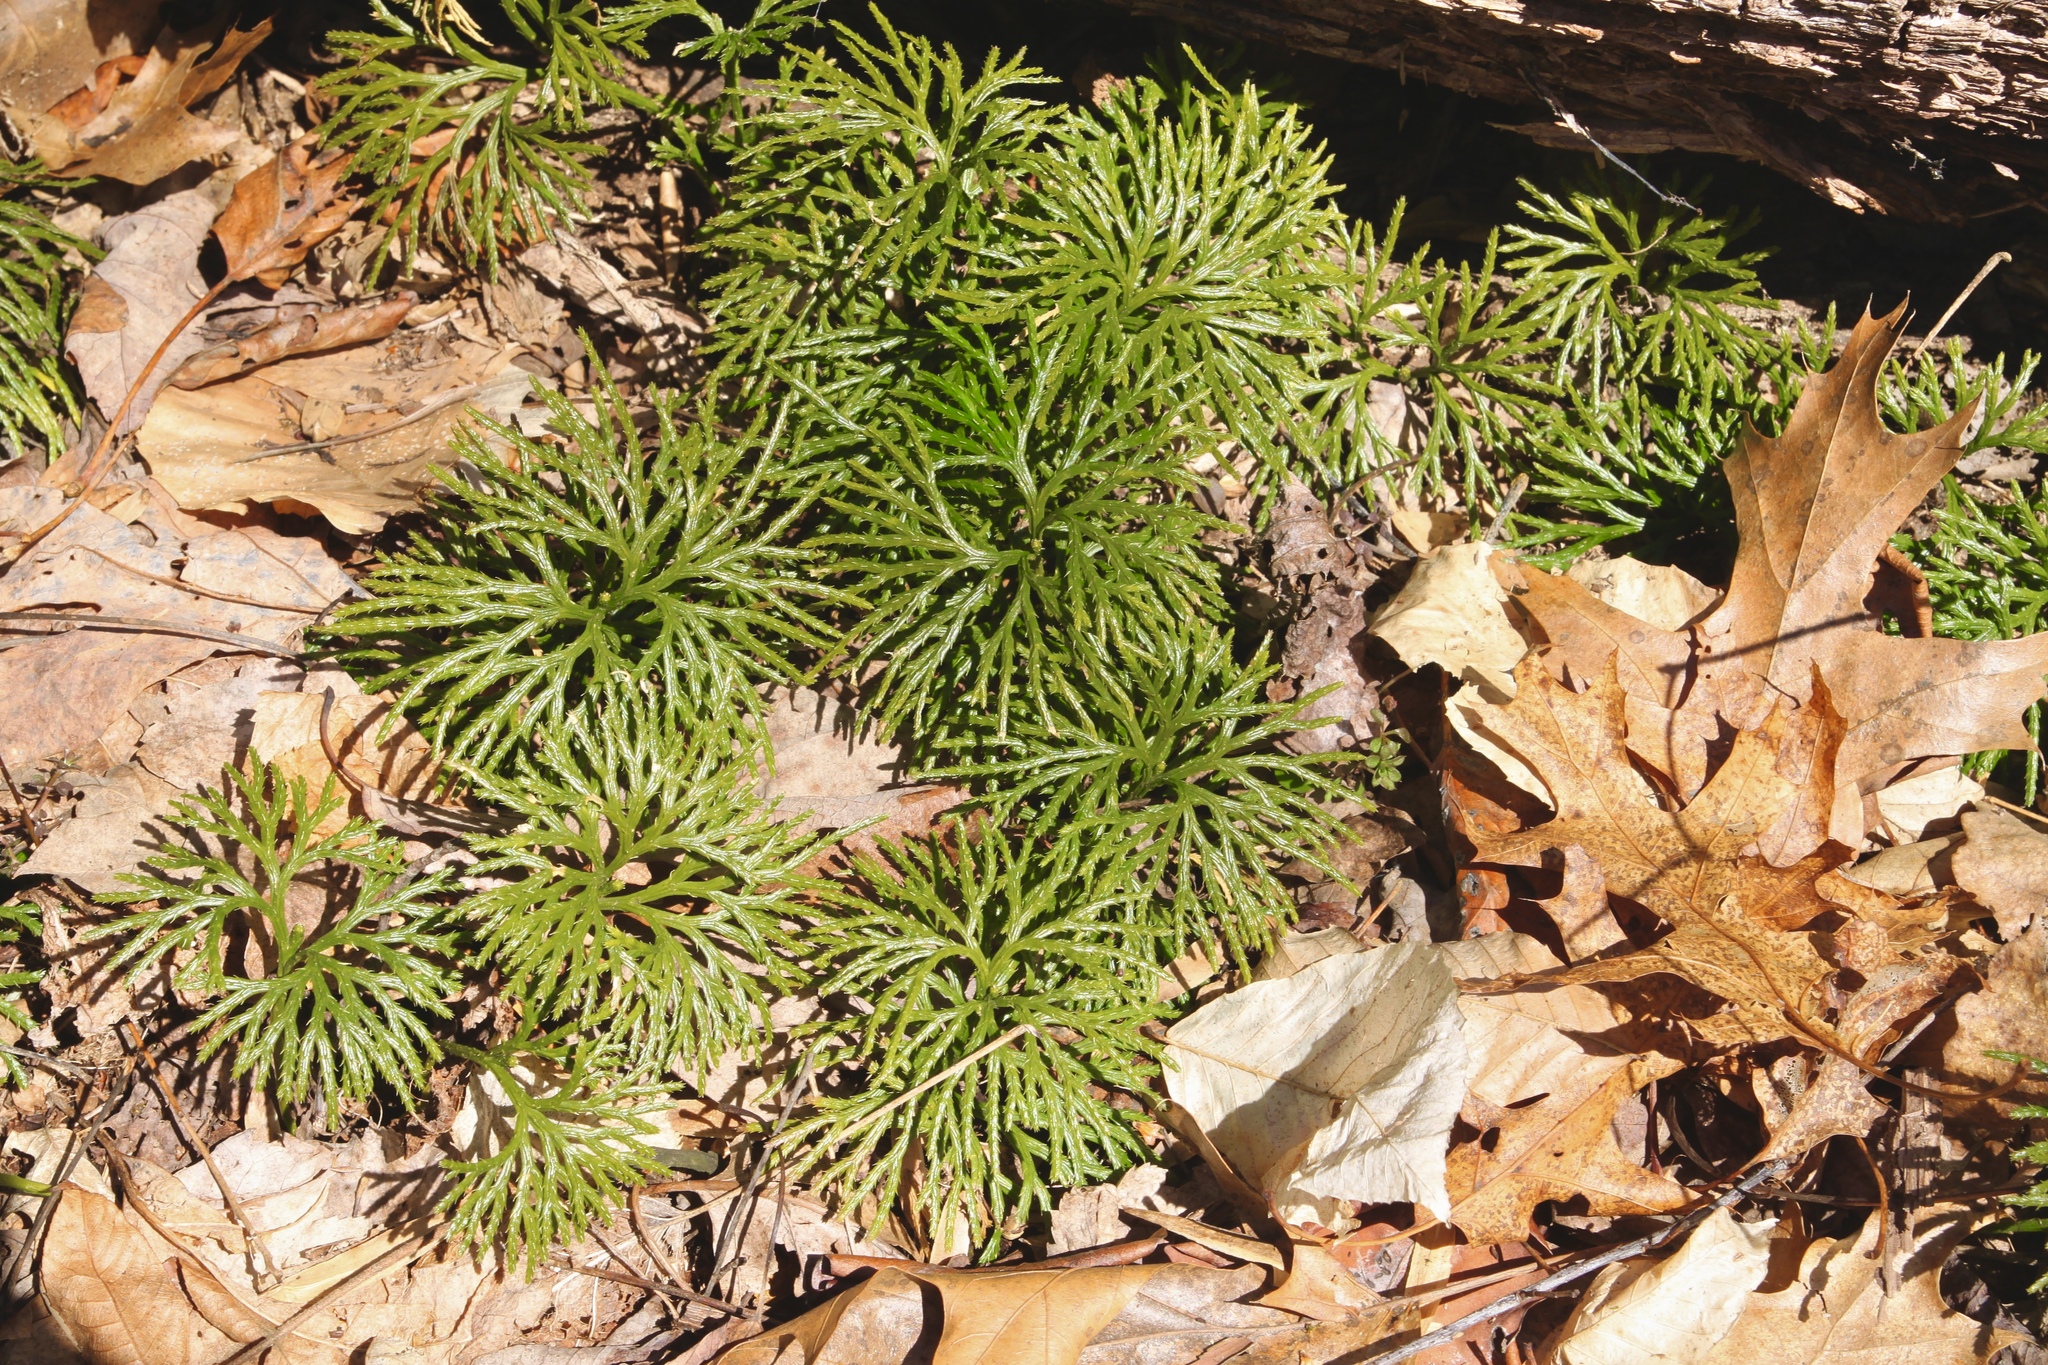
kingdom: Plantae
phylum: Tracheophyta
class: Lycopodiopsida
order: Lycopodiales
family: Lycopodiaceae
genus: Diphasiastrum
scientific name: Diphasiastrum digitatum
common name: Southern running-pine
